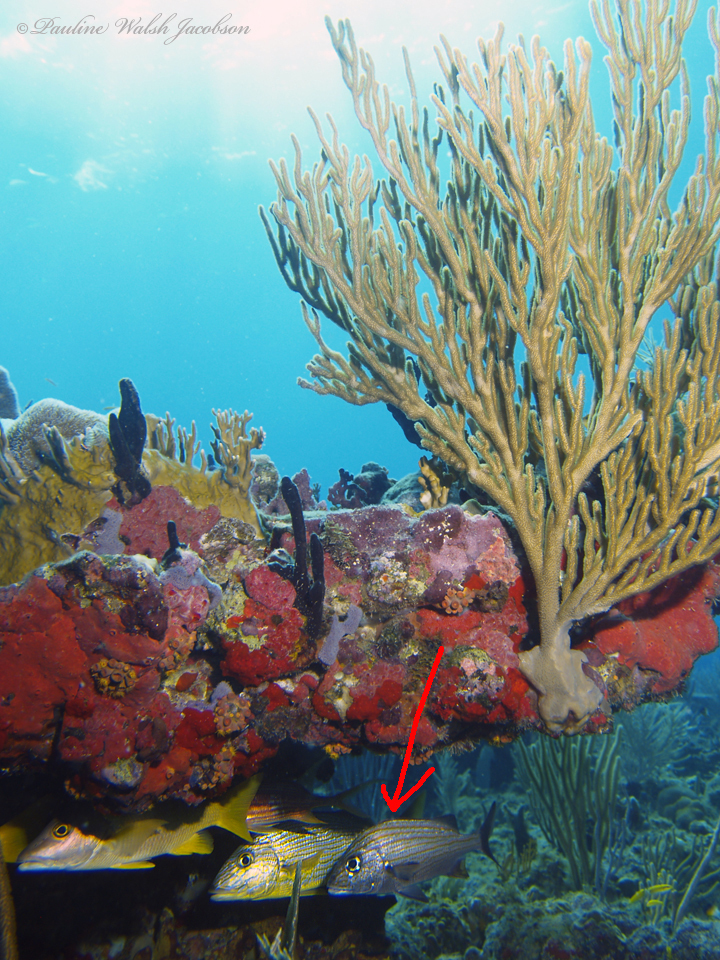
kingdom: Animalia
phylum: Chordata
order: Perciformes
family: Haemulidae
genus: Haemulon
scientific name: Haemulon carbonarium
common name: Caesar grunt
